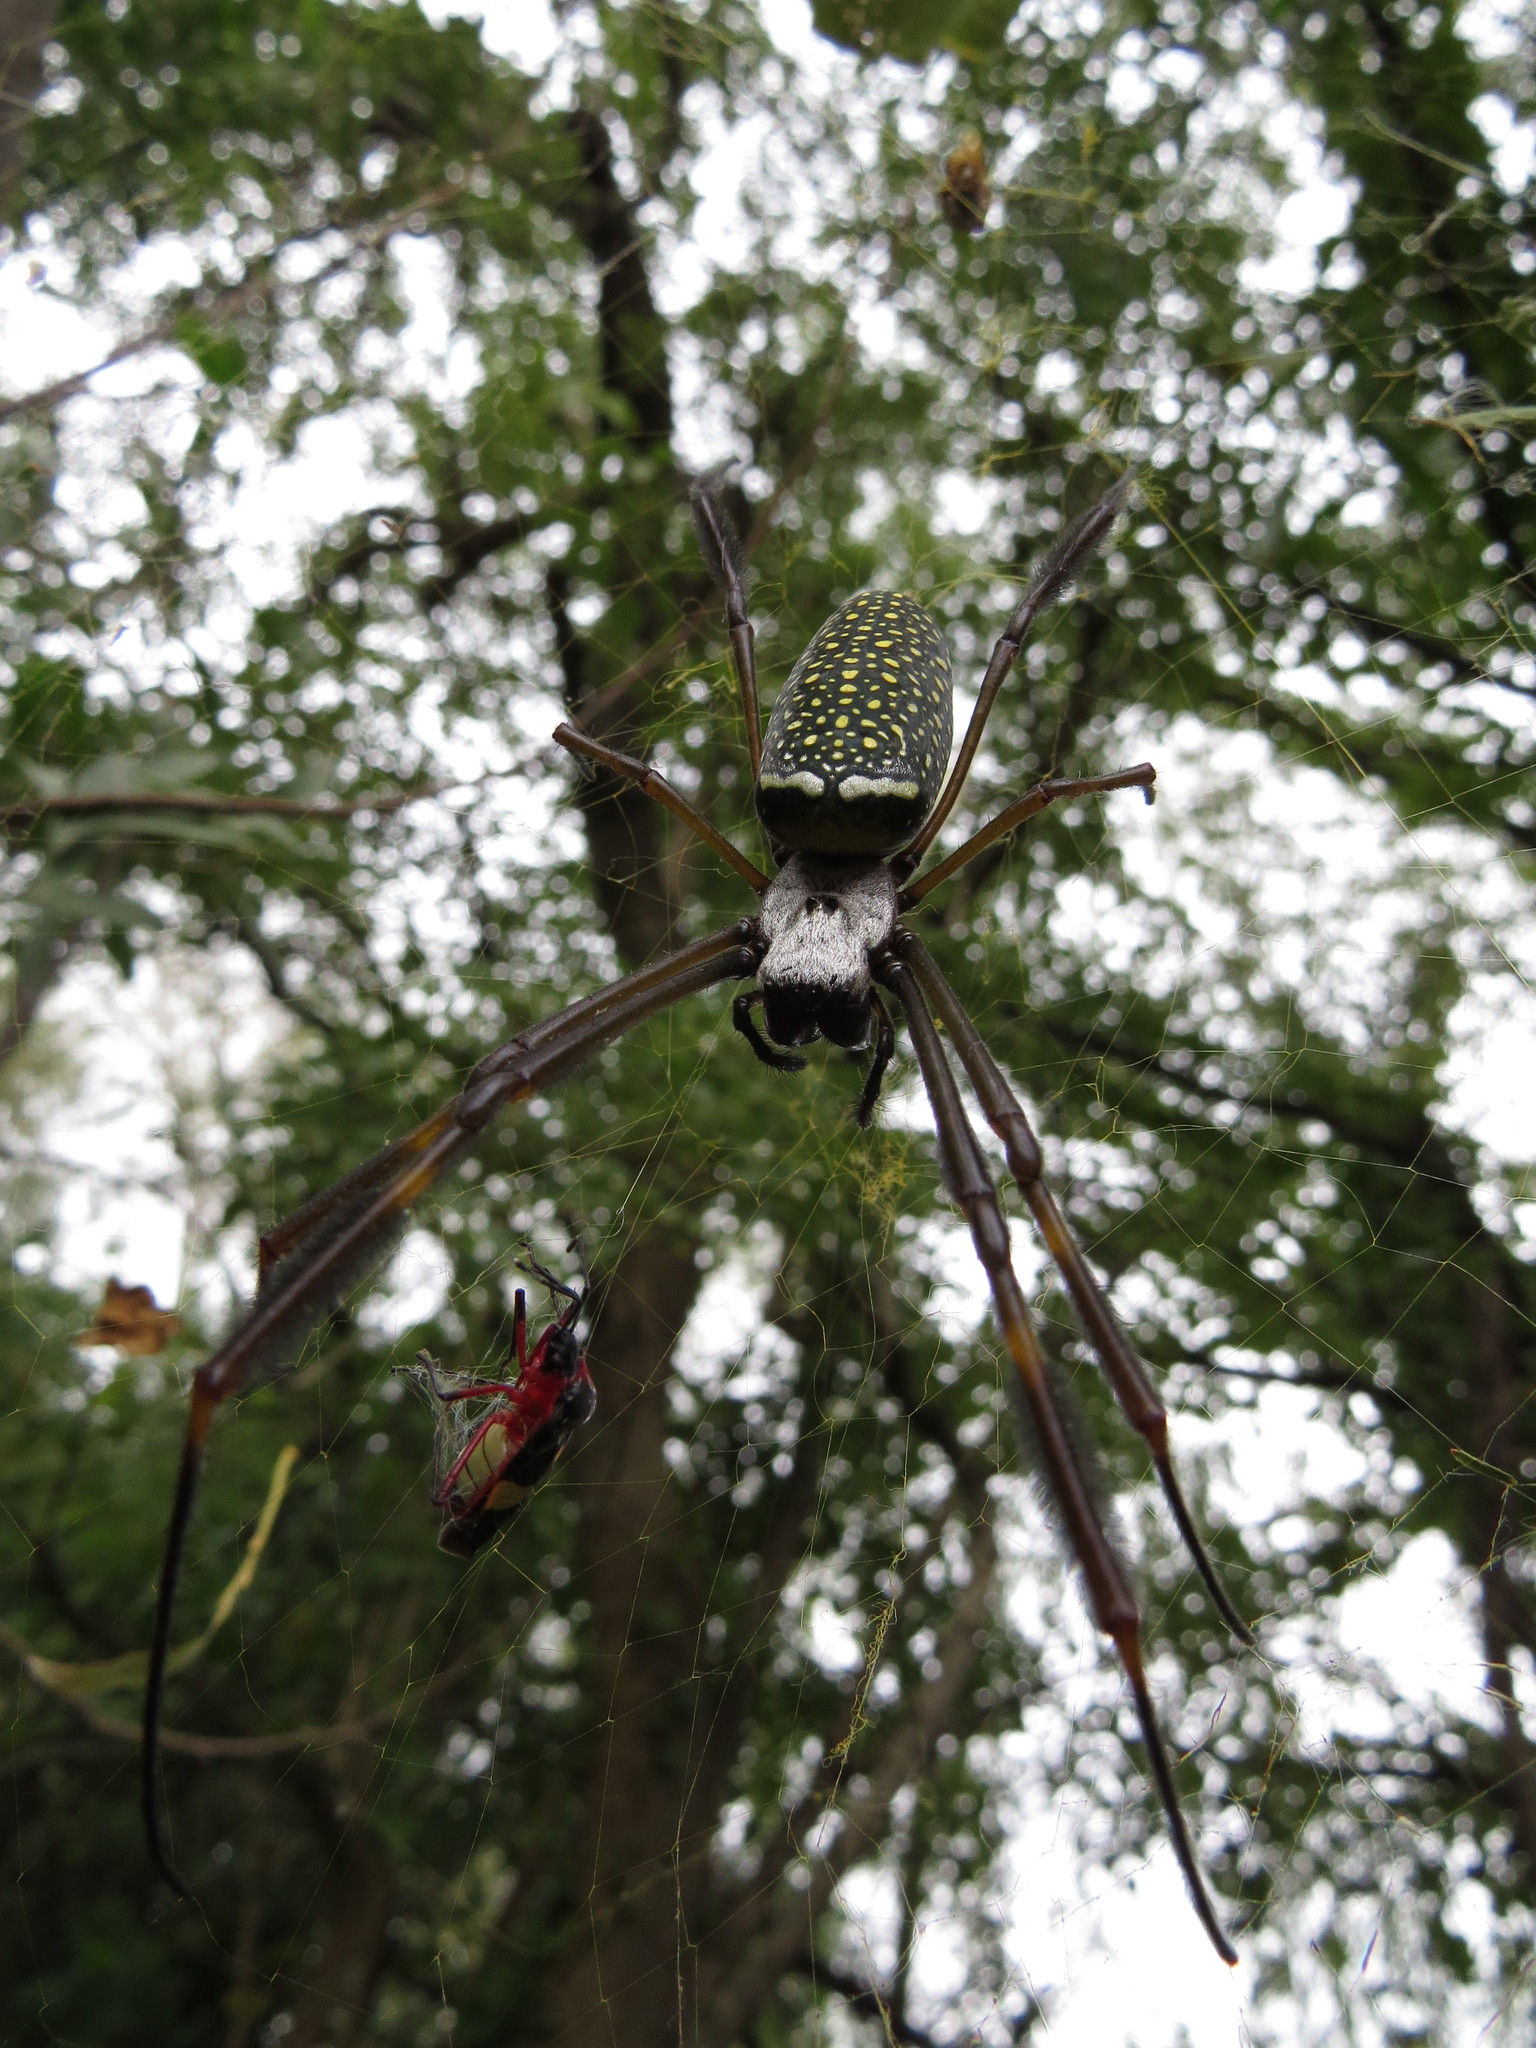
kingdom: Animalia
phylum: Arthropoda
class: Arachnida
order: Araneae
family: Araneidae
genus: Trichonephila
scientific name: Trichonephila clavipes
